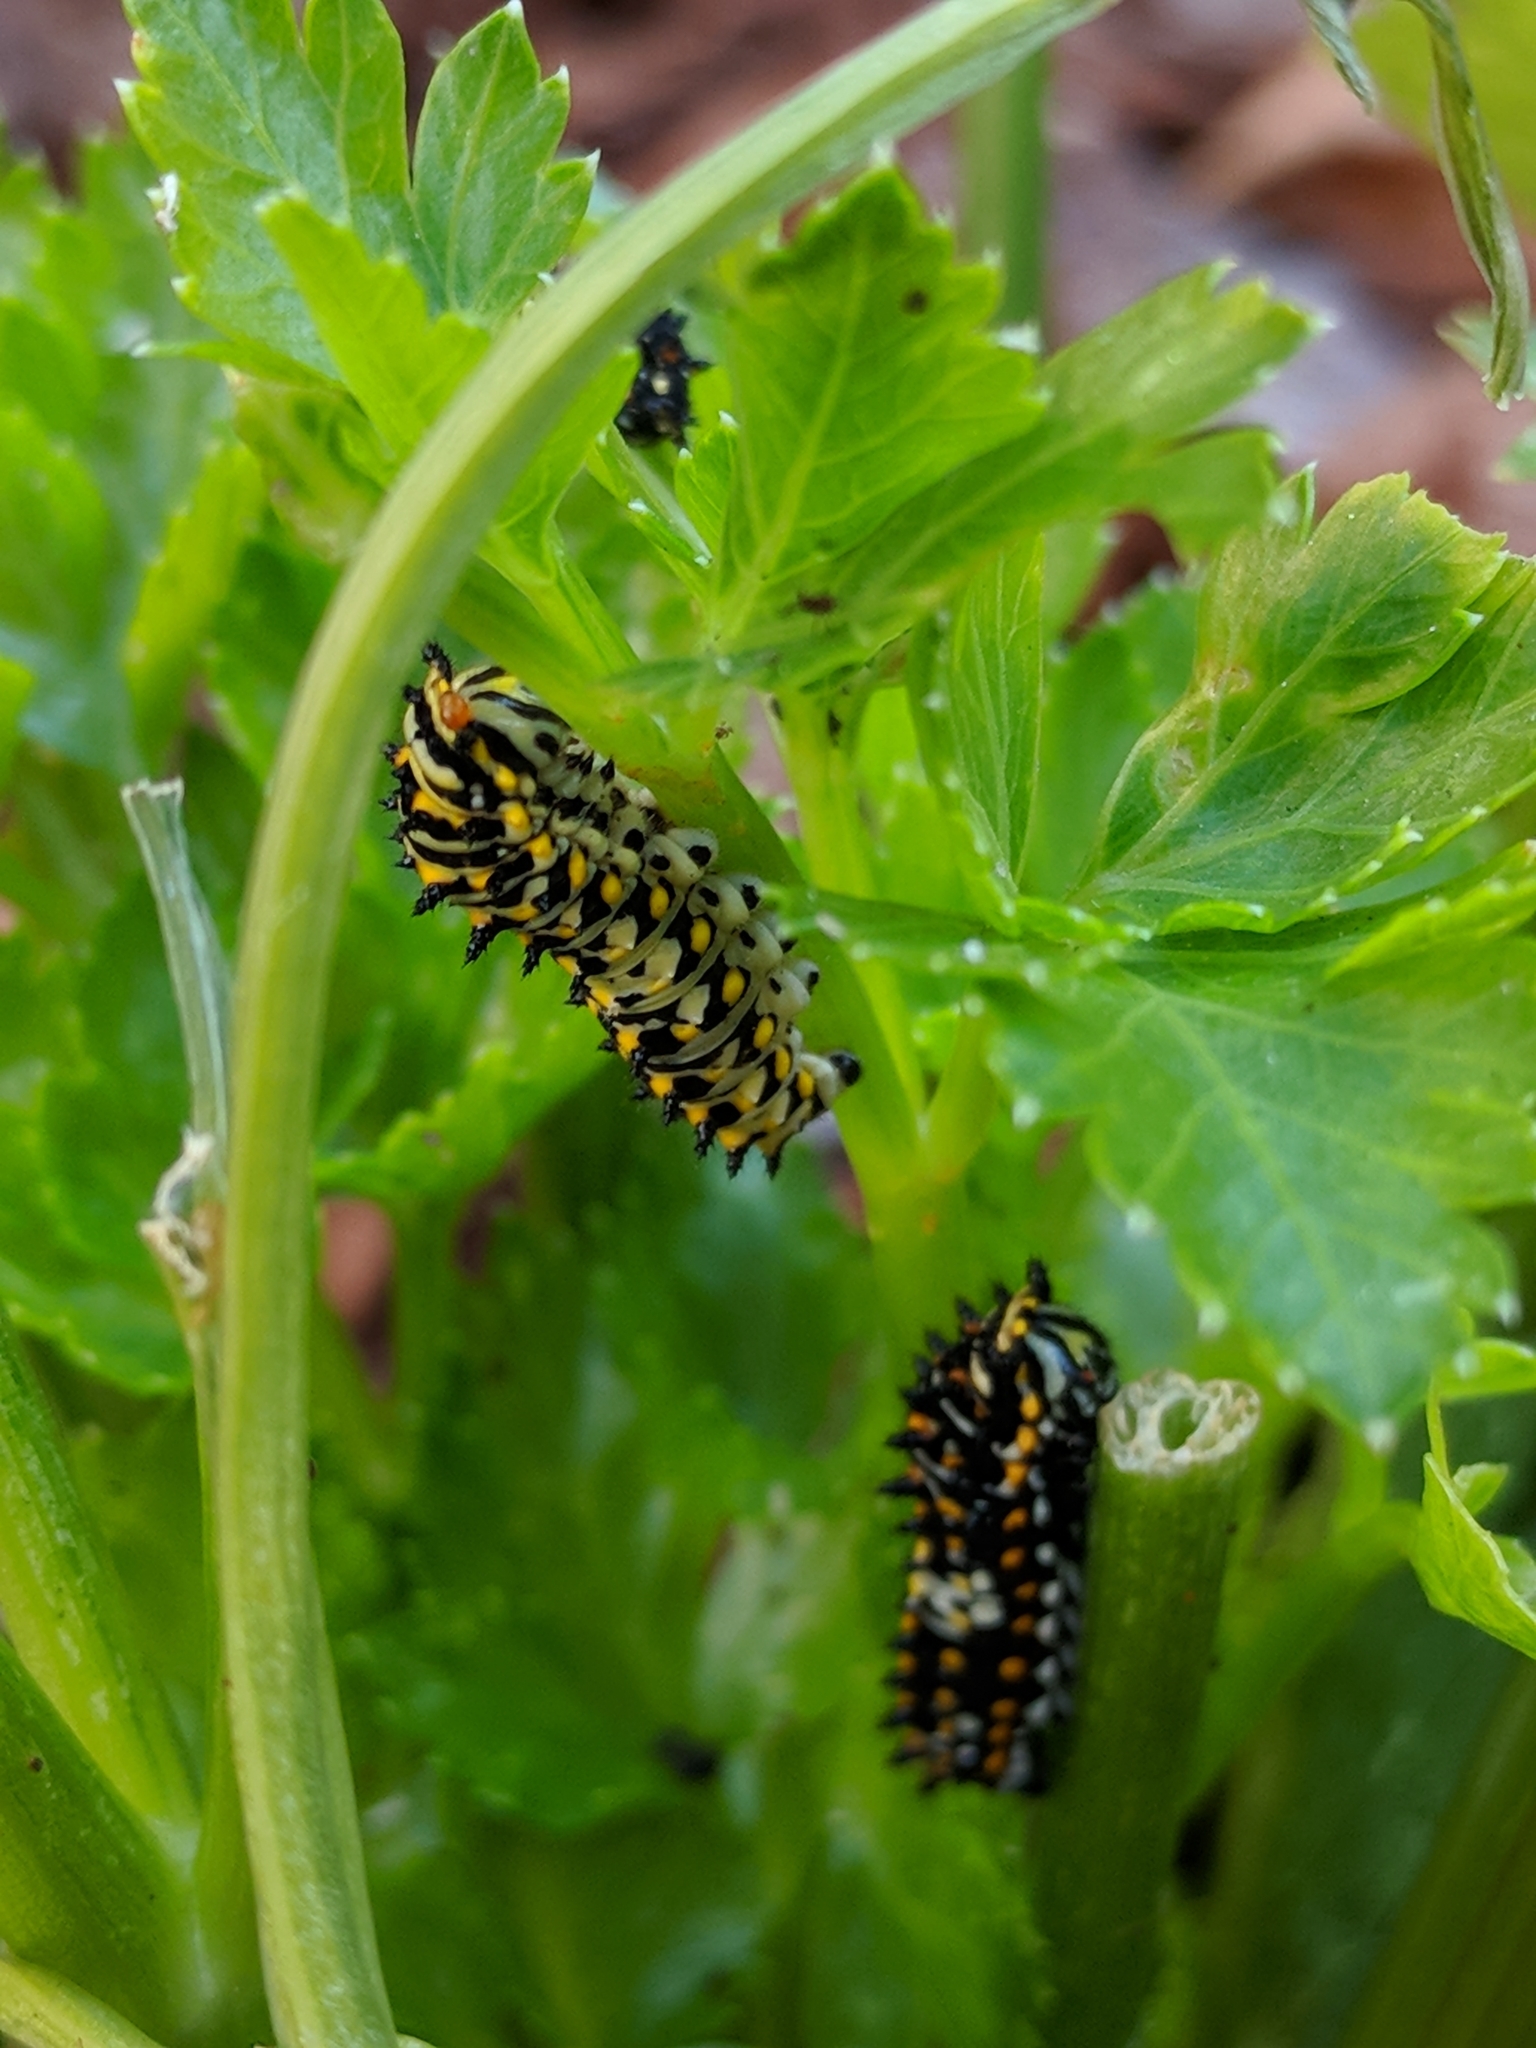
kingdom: Animalia
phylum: Arthropoda
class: Insecta
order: Lepidoptera
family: Papilionidae
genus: Papilio
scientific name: Papilio zelicaon
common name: Anise swallowtail
